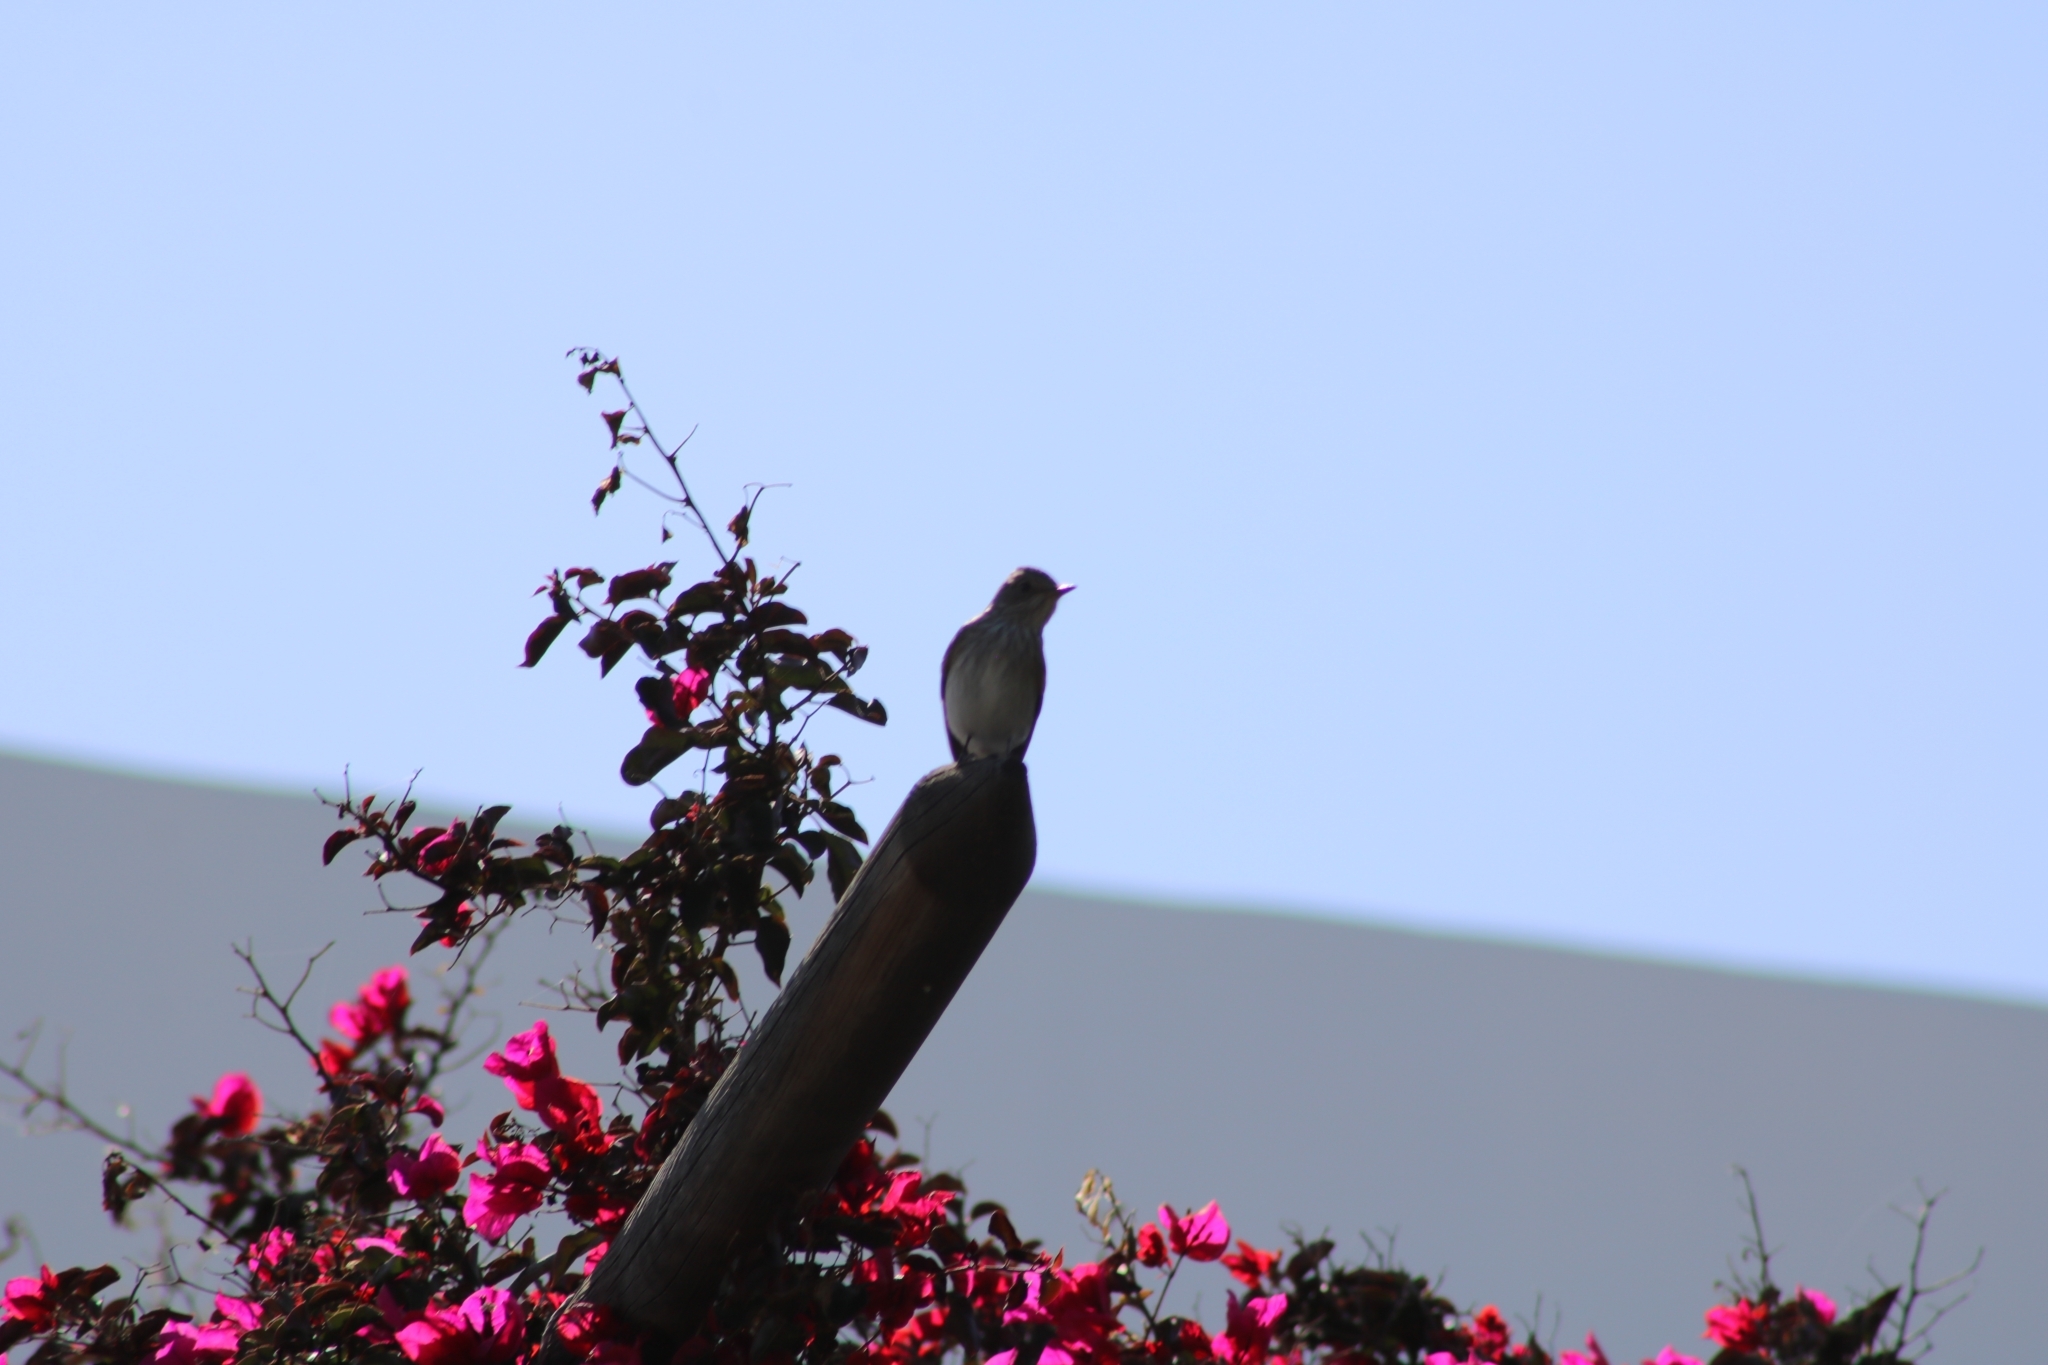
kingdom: Animalia
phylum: Chordata
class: Aves
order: Passeriformes
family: Muscicapidae
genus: Muscicapa
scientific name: Muscicapa striata
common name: Spotted flycatcher
